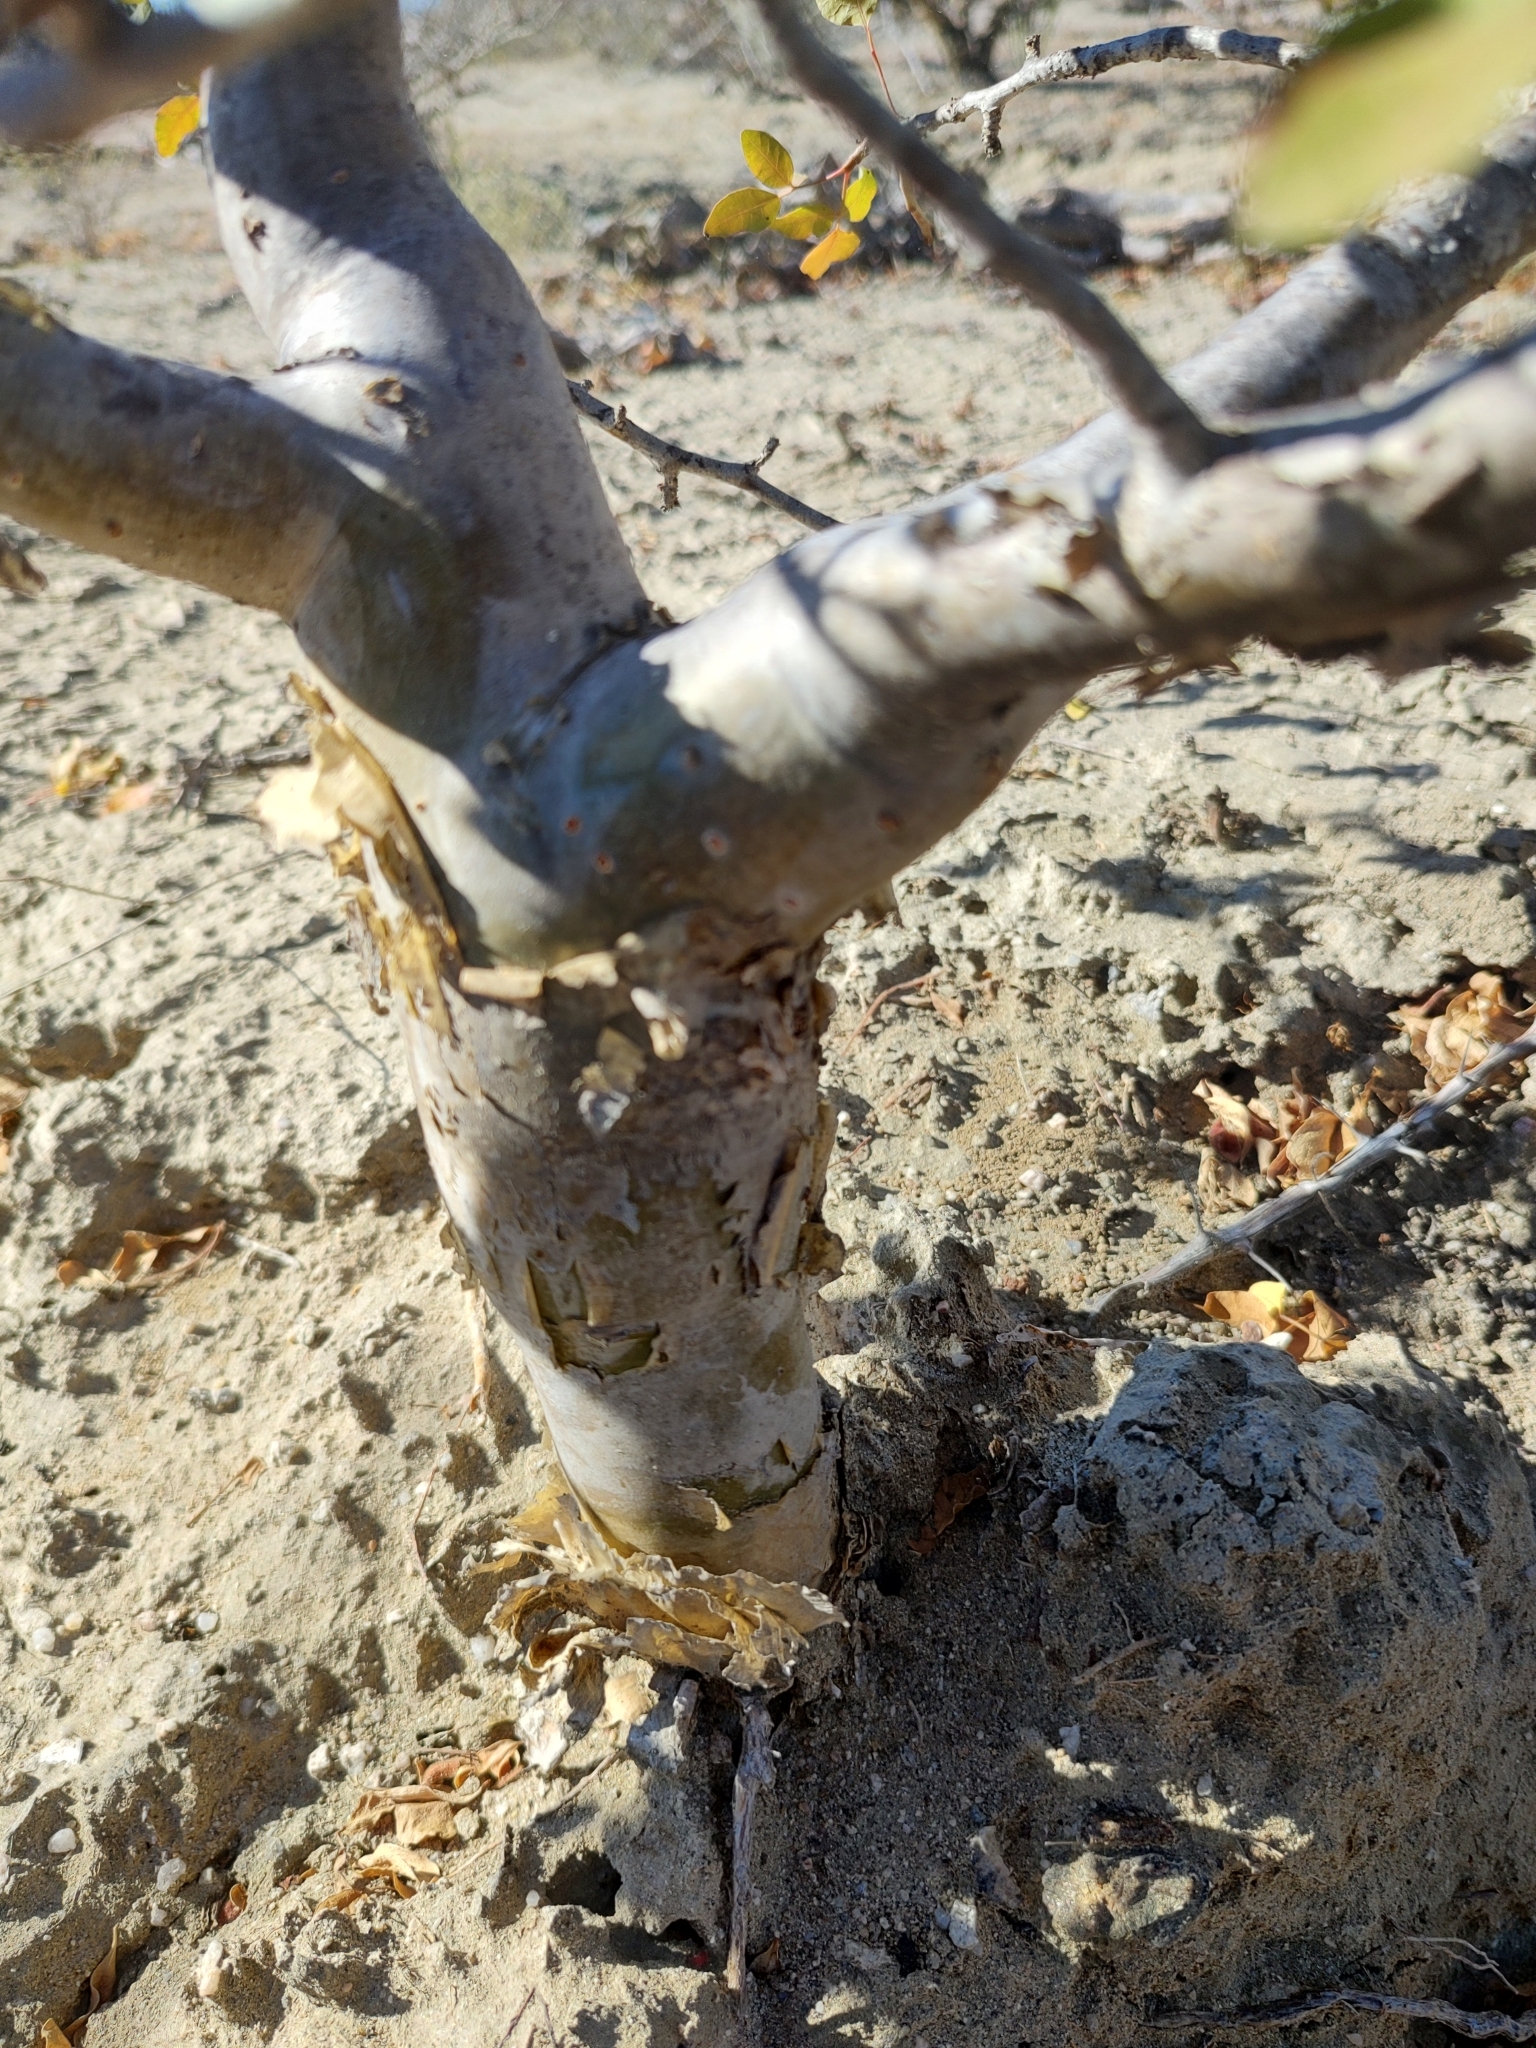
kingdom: Plantae
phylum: Tracheophyta
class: Magnoliopsida
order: Sapindales
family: Burseraceae
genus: Bursera
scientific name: Bursera fagaroides
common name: Elephant tree
